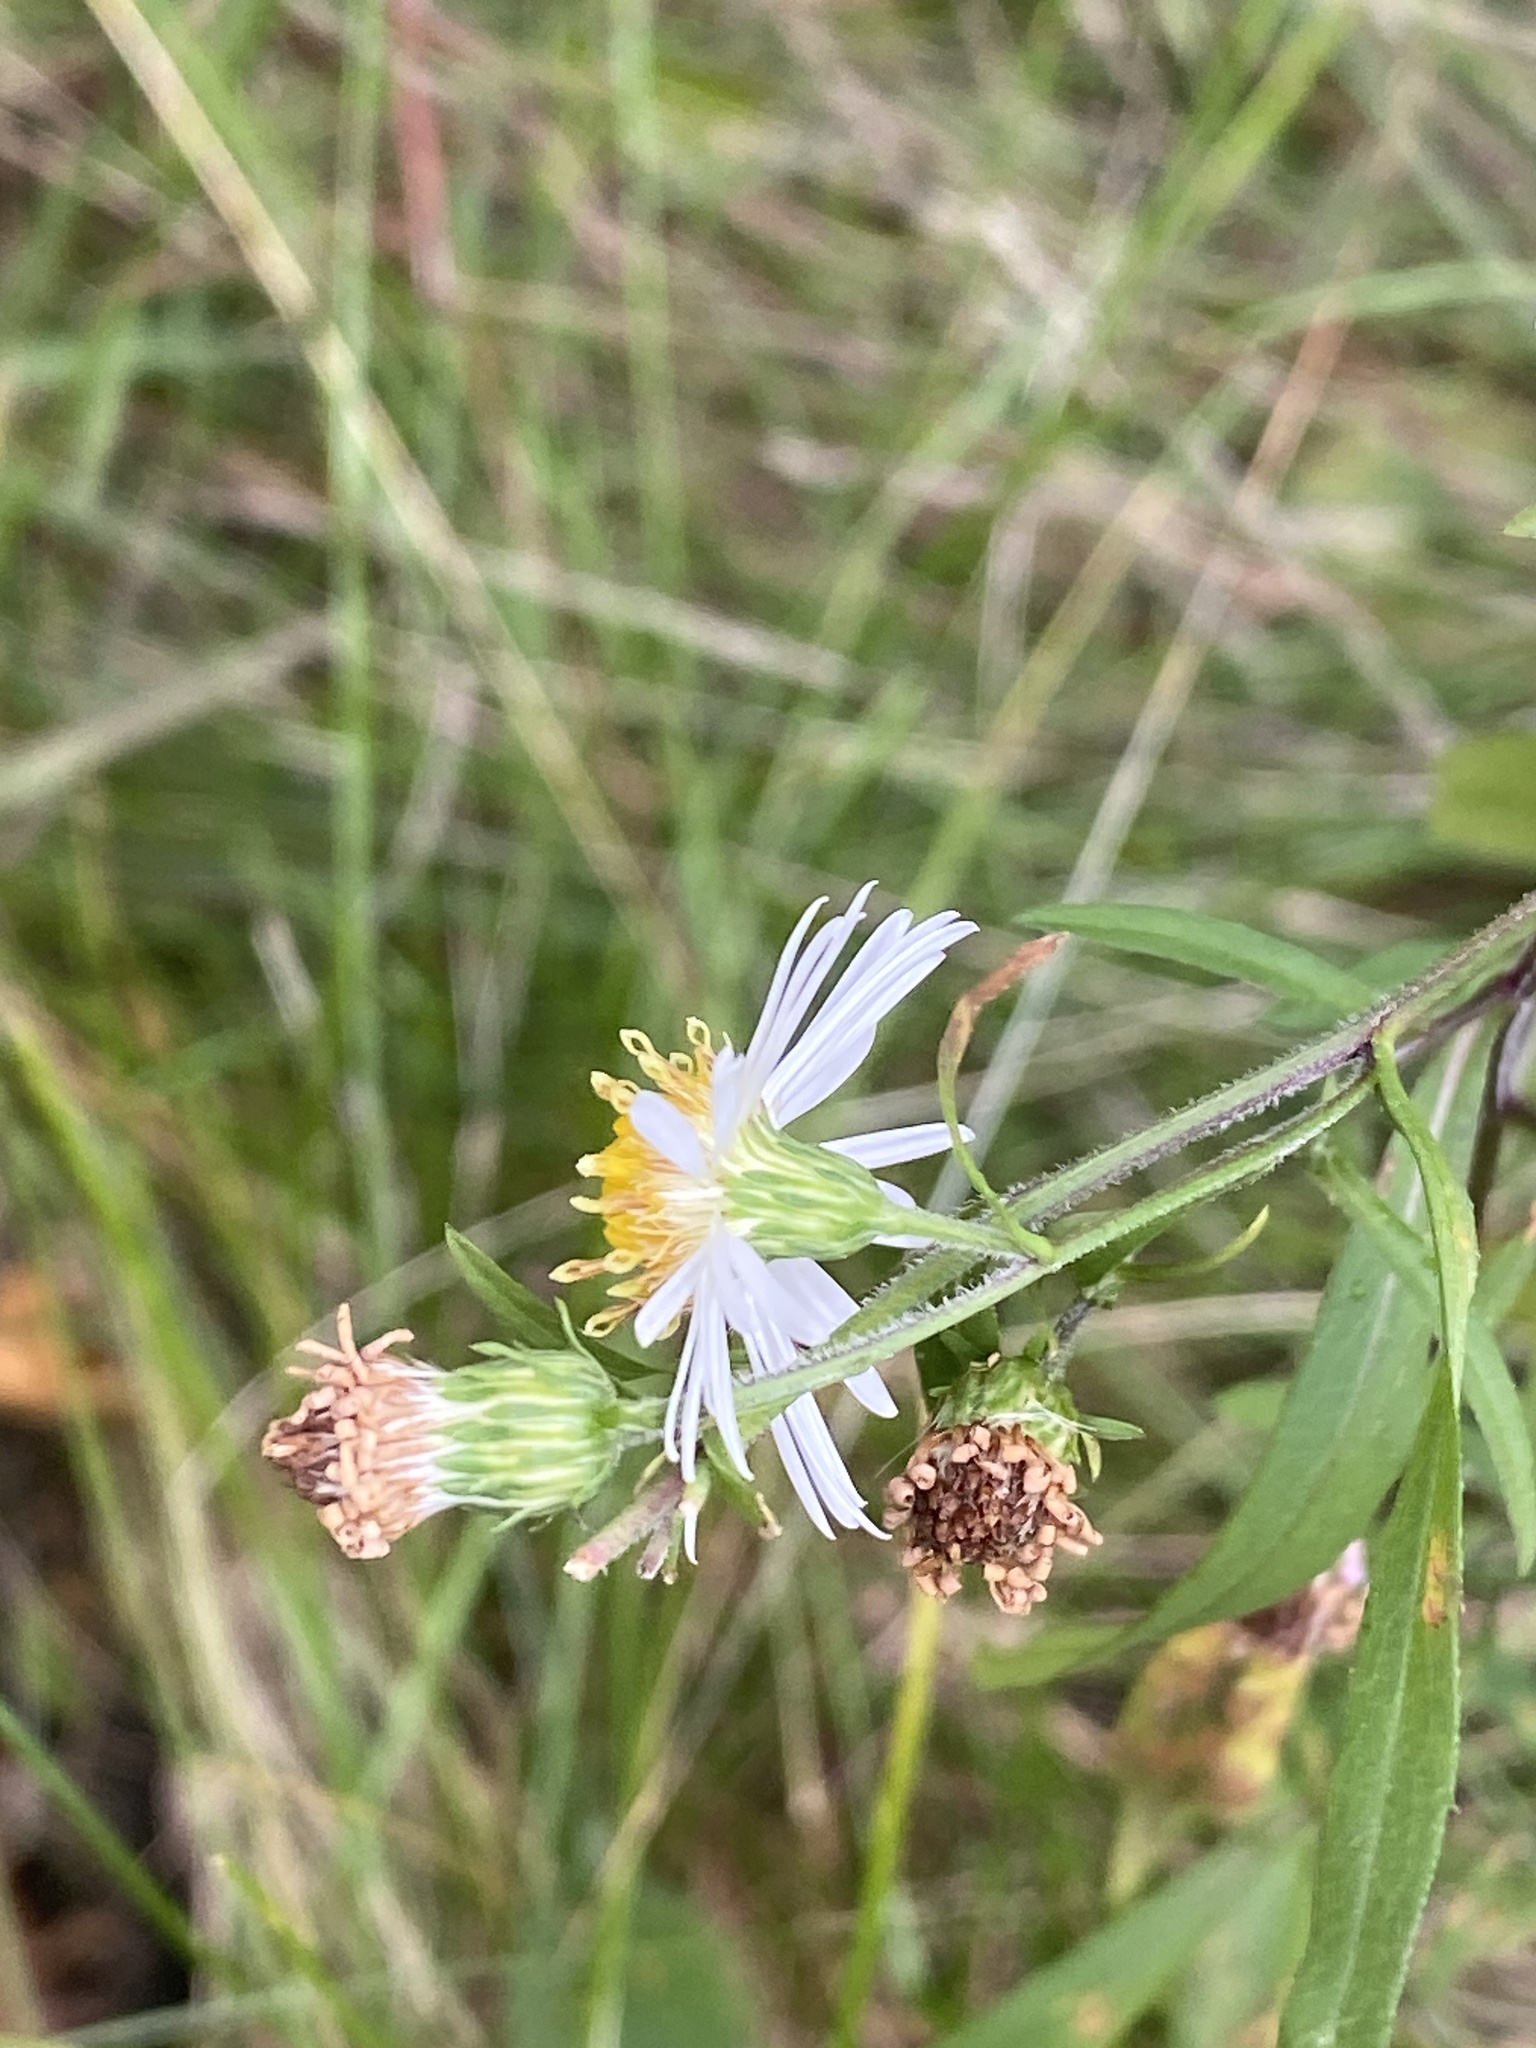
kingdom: Plantae
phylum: Tracheophyta
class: Magnoliopsida
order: Asterales
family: Asteraceae
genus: Symphyotrichum
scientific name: Symphyotrichum lanceolatum
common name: Panicled aster
